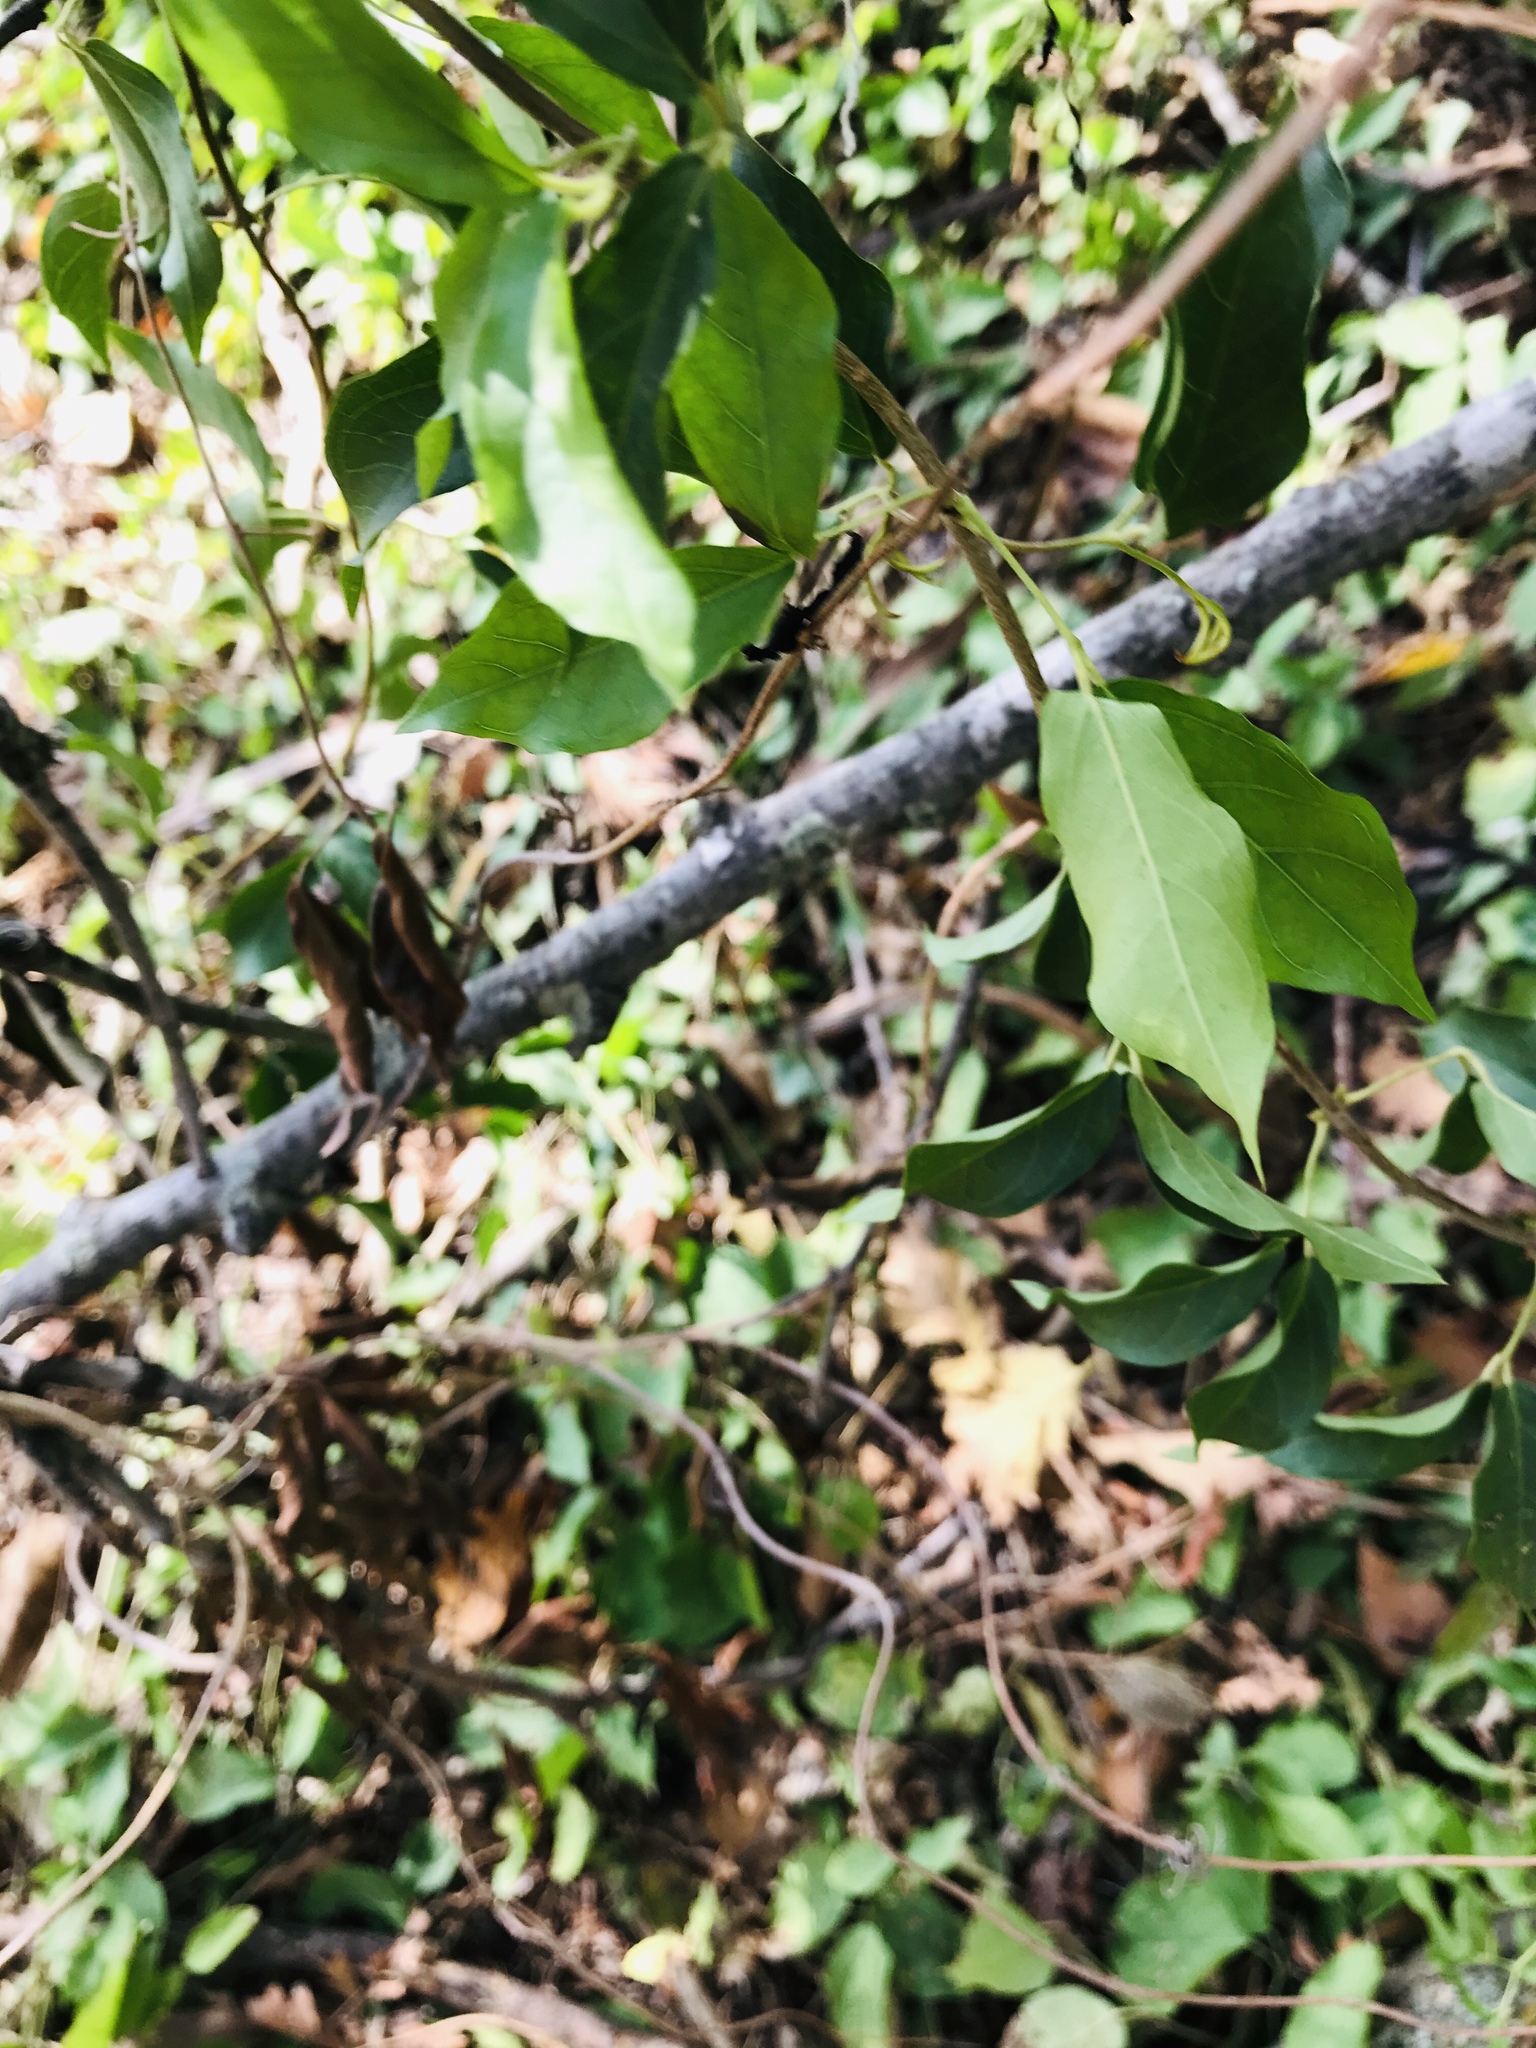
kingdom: Plantae
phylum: Tracheophyta
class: Magnoliopsida
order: Lamiales
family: Bignoniaceae
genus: Dolichandra
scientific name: Dolichandra unguis-cati
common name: Catclaw vine
